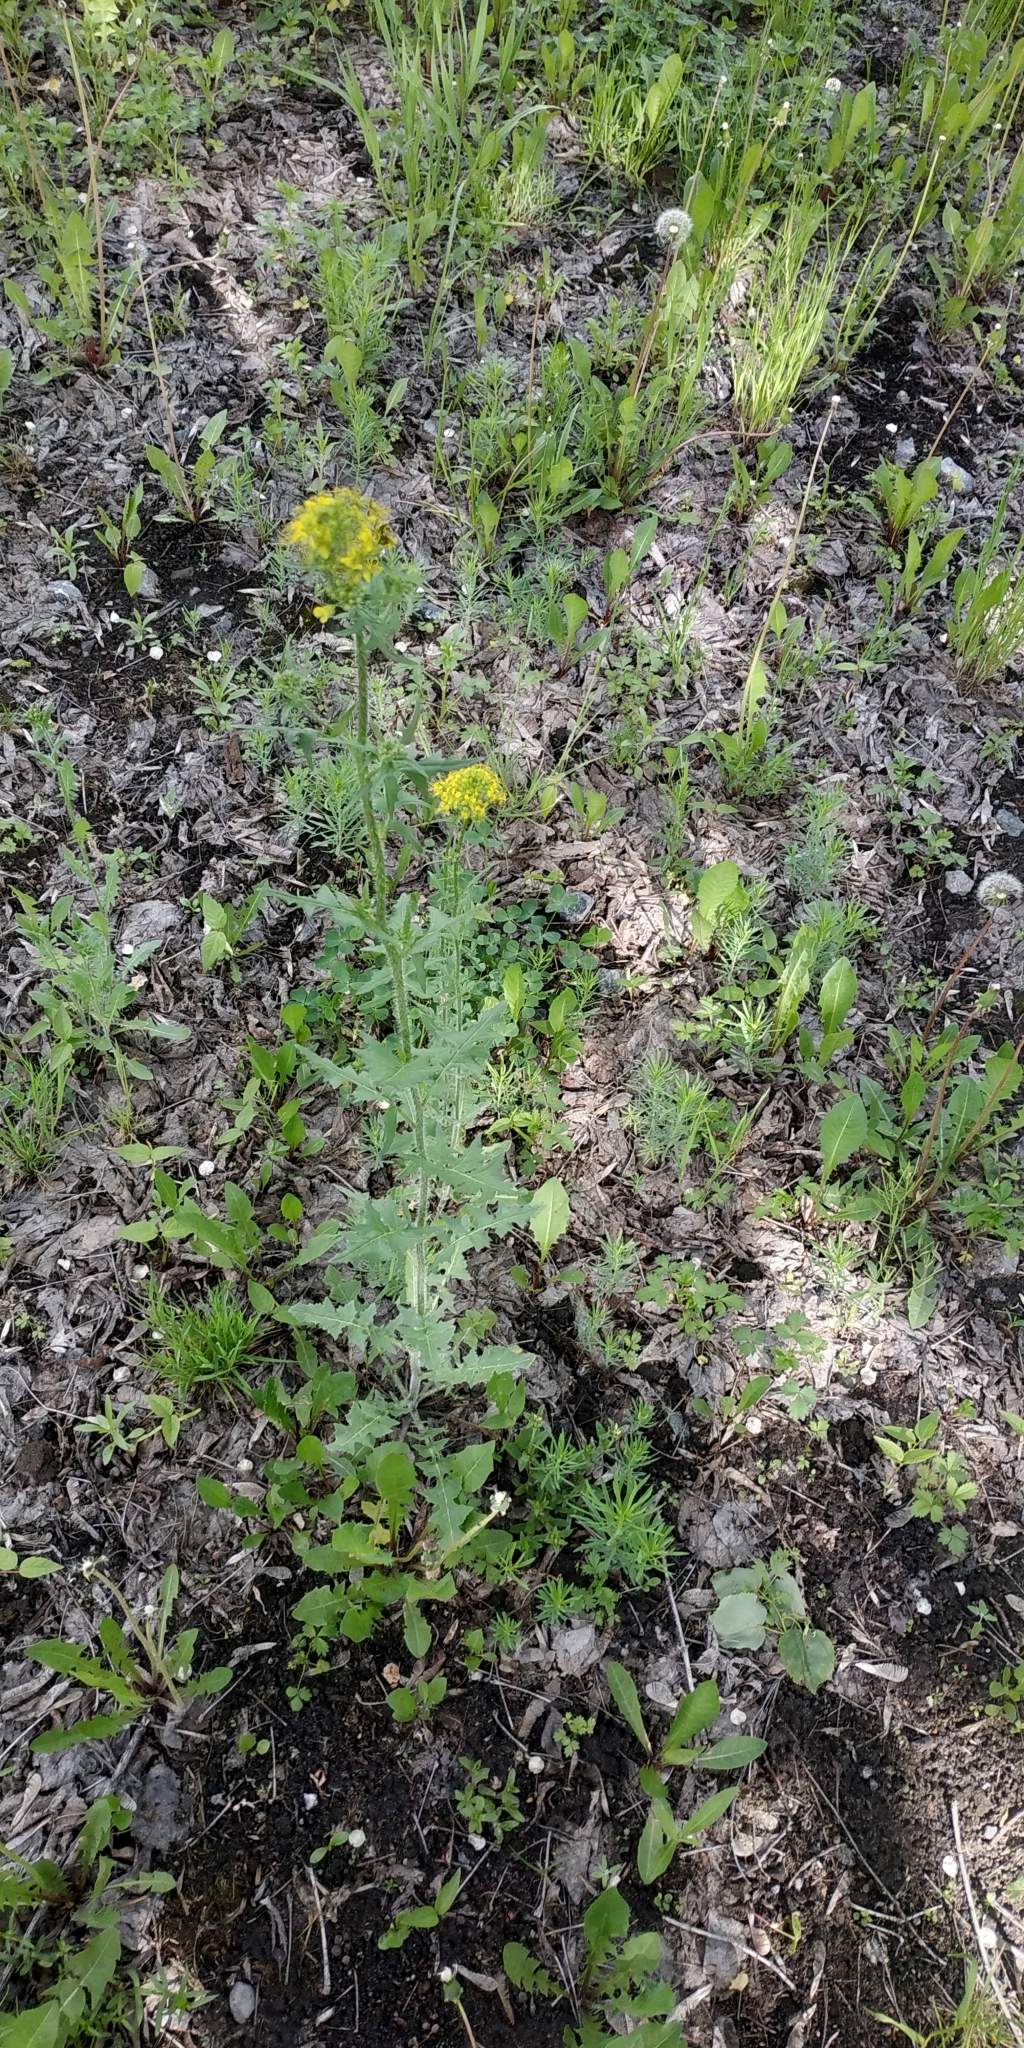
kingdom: Plantae
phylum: Tracheophyta
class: Magnoliopsida
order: Brassicales
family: Brassicaceae
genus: Sisymbrium
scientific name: Sisymbrium loeselii
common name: False london-rocket
